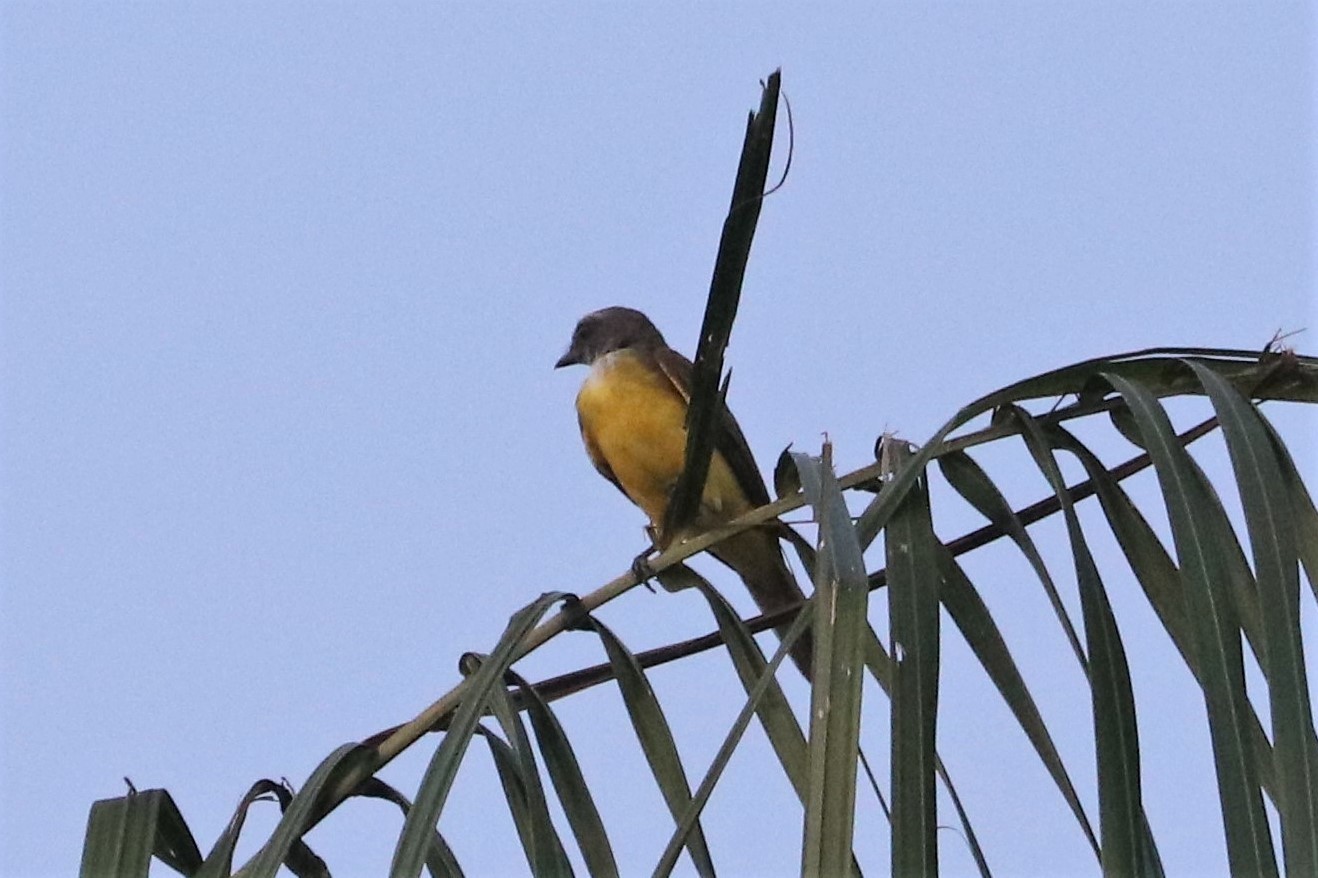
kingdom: Animalia
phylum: Chordata
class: Aves
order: Passeriformes
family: Tyrannidae
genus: Tyrannopsis
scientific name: Tyrannopsis sulphurea
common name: Sulphury flycatcher
